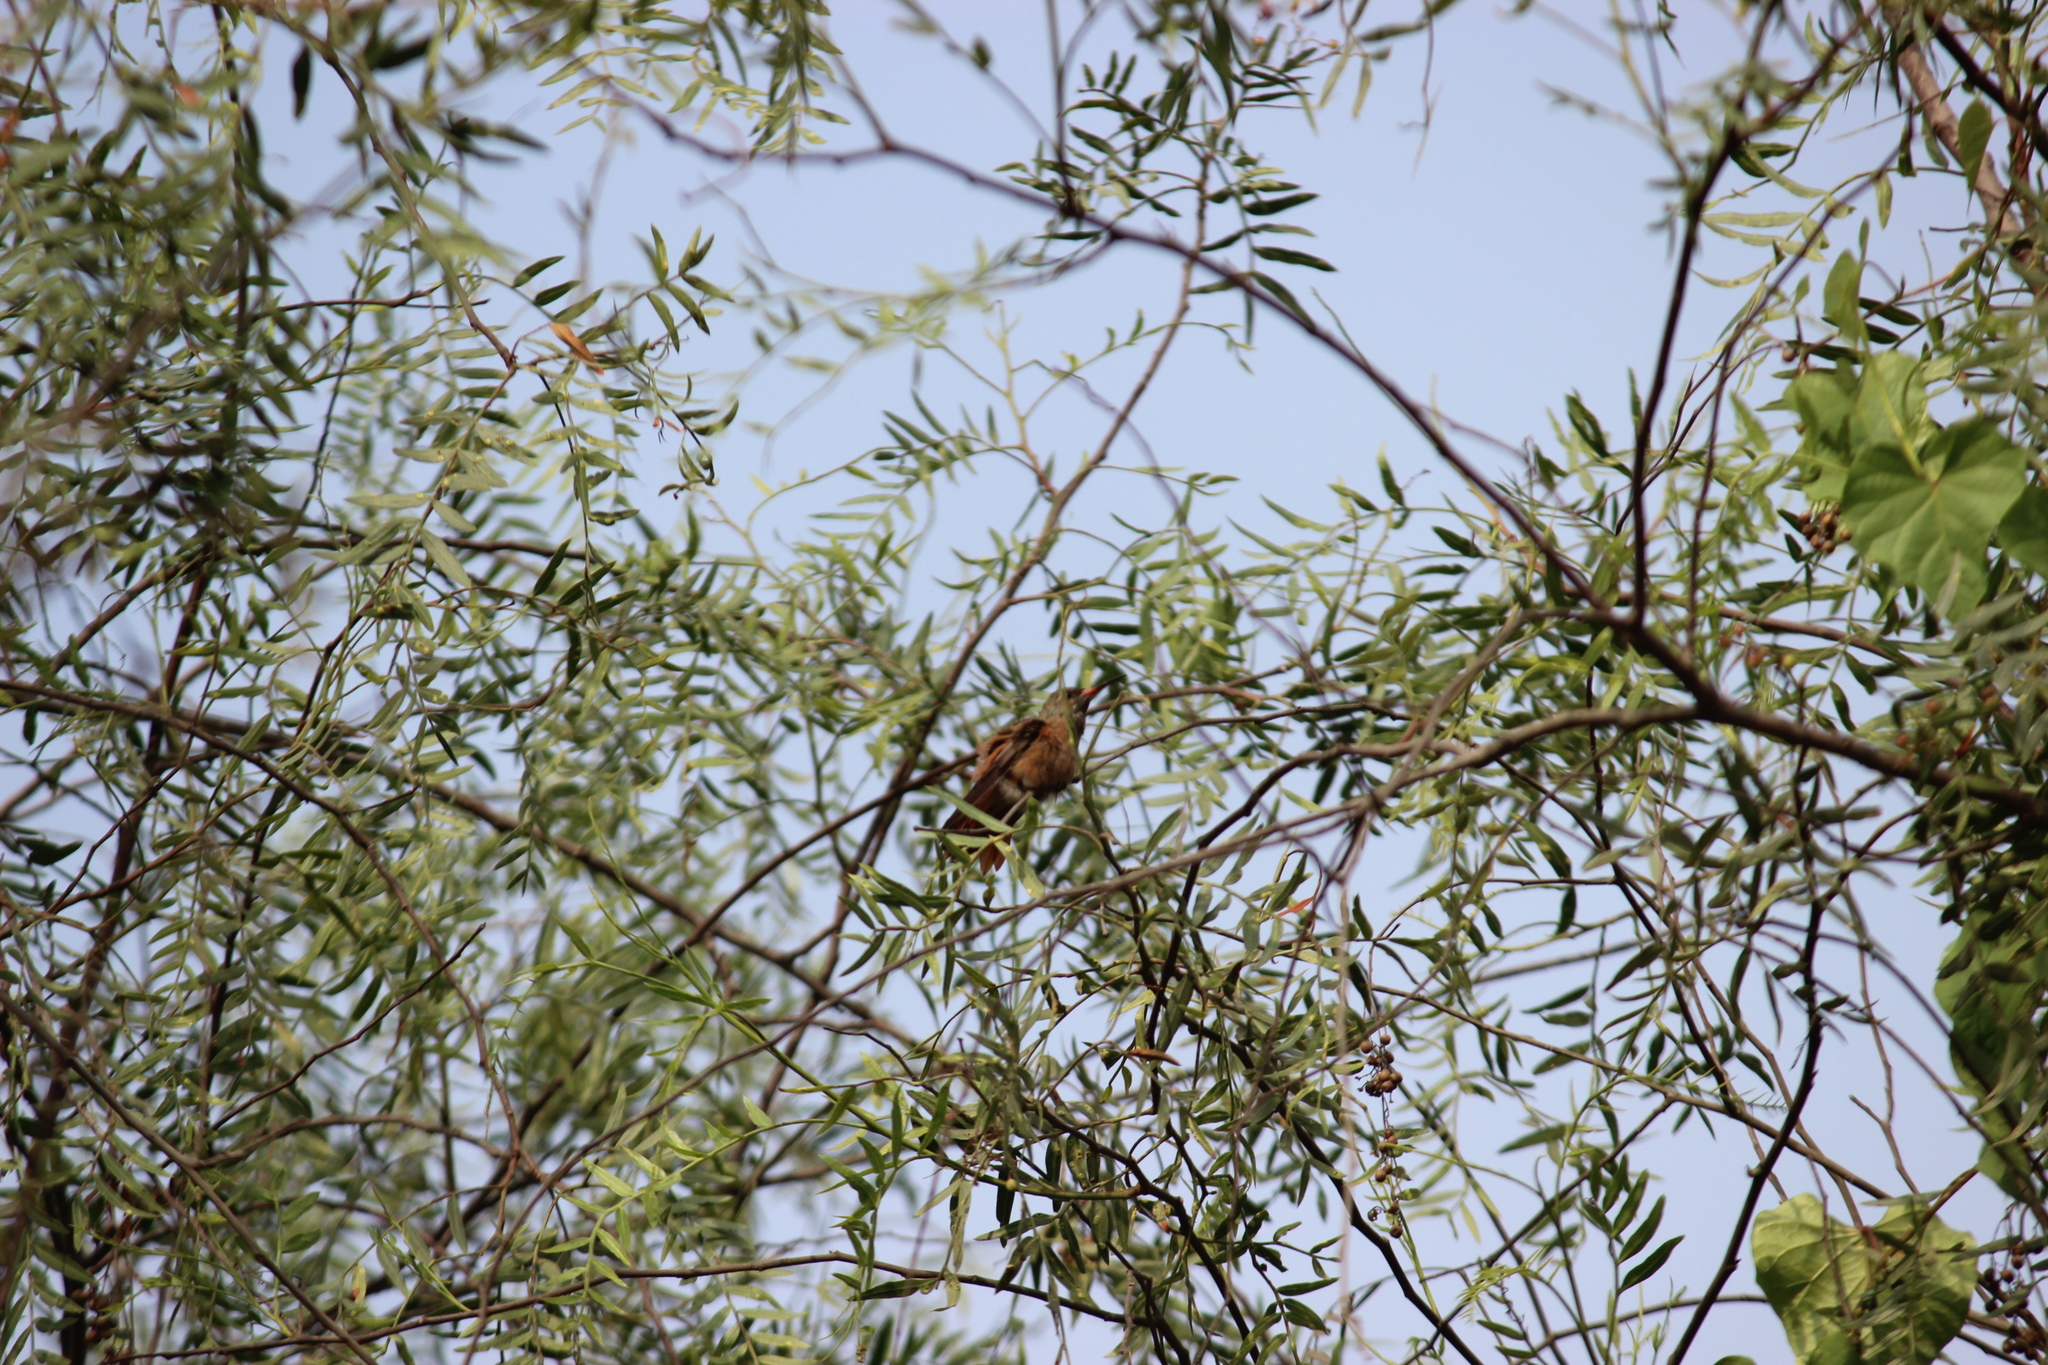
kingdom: Animalia
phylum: Chordata
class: Aves
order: Apodiformes
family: Trochilidae
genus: Amazilis
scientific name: Amazilis amazilia
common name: Amazilia hummingbird
